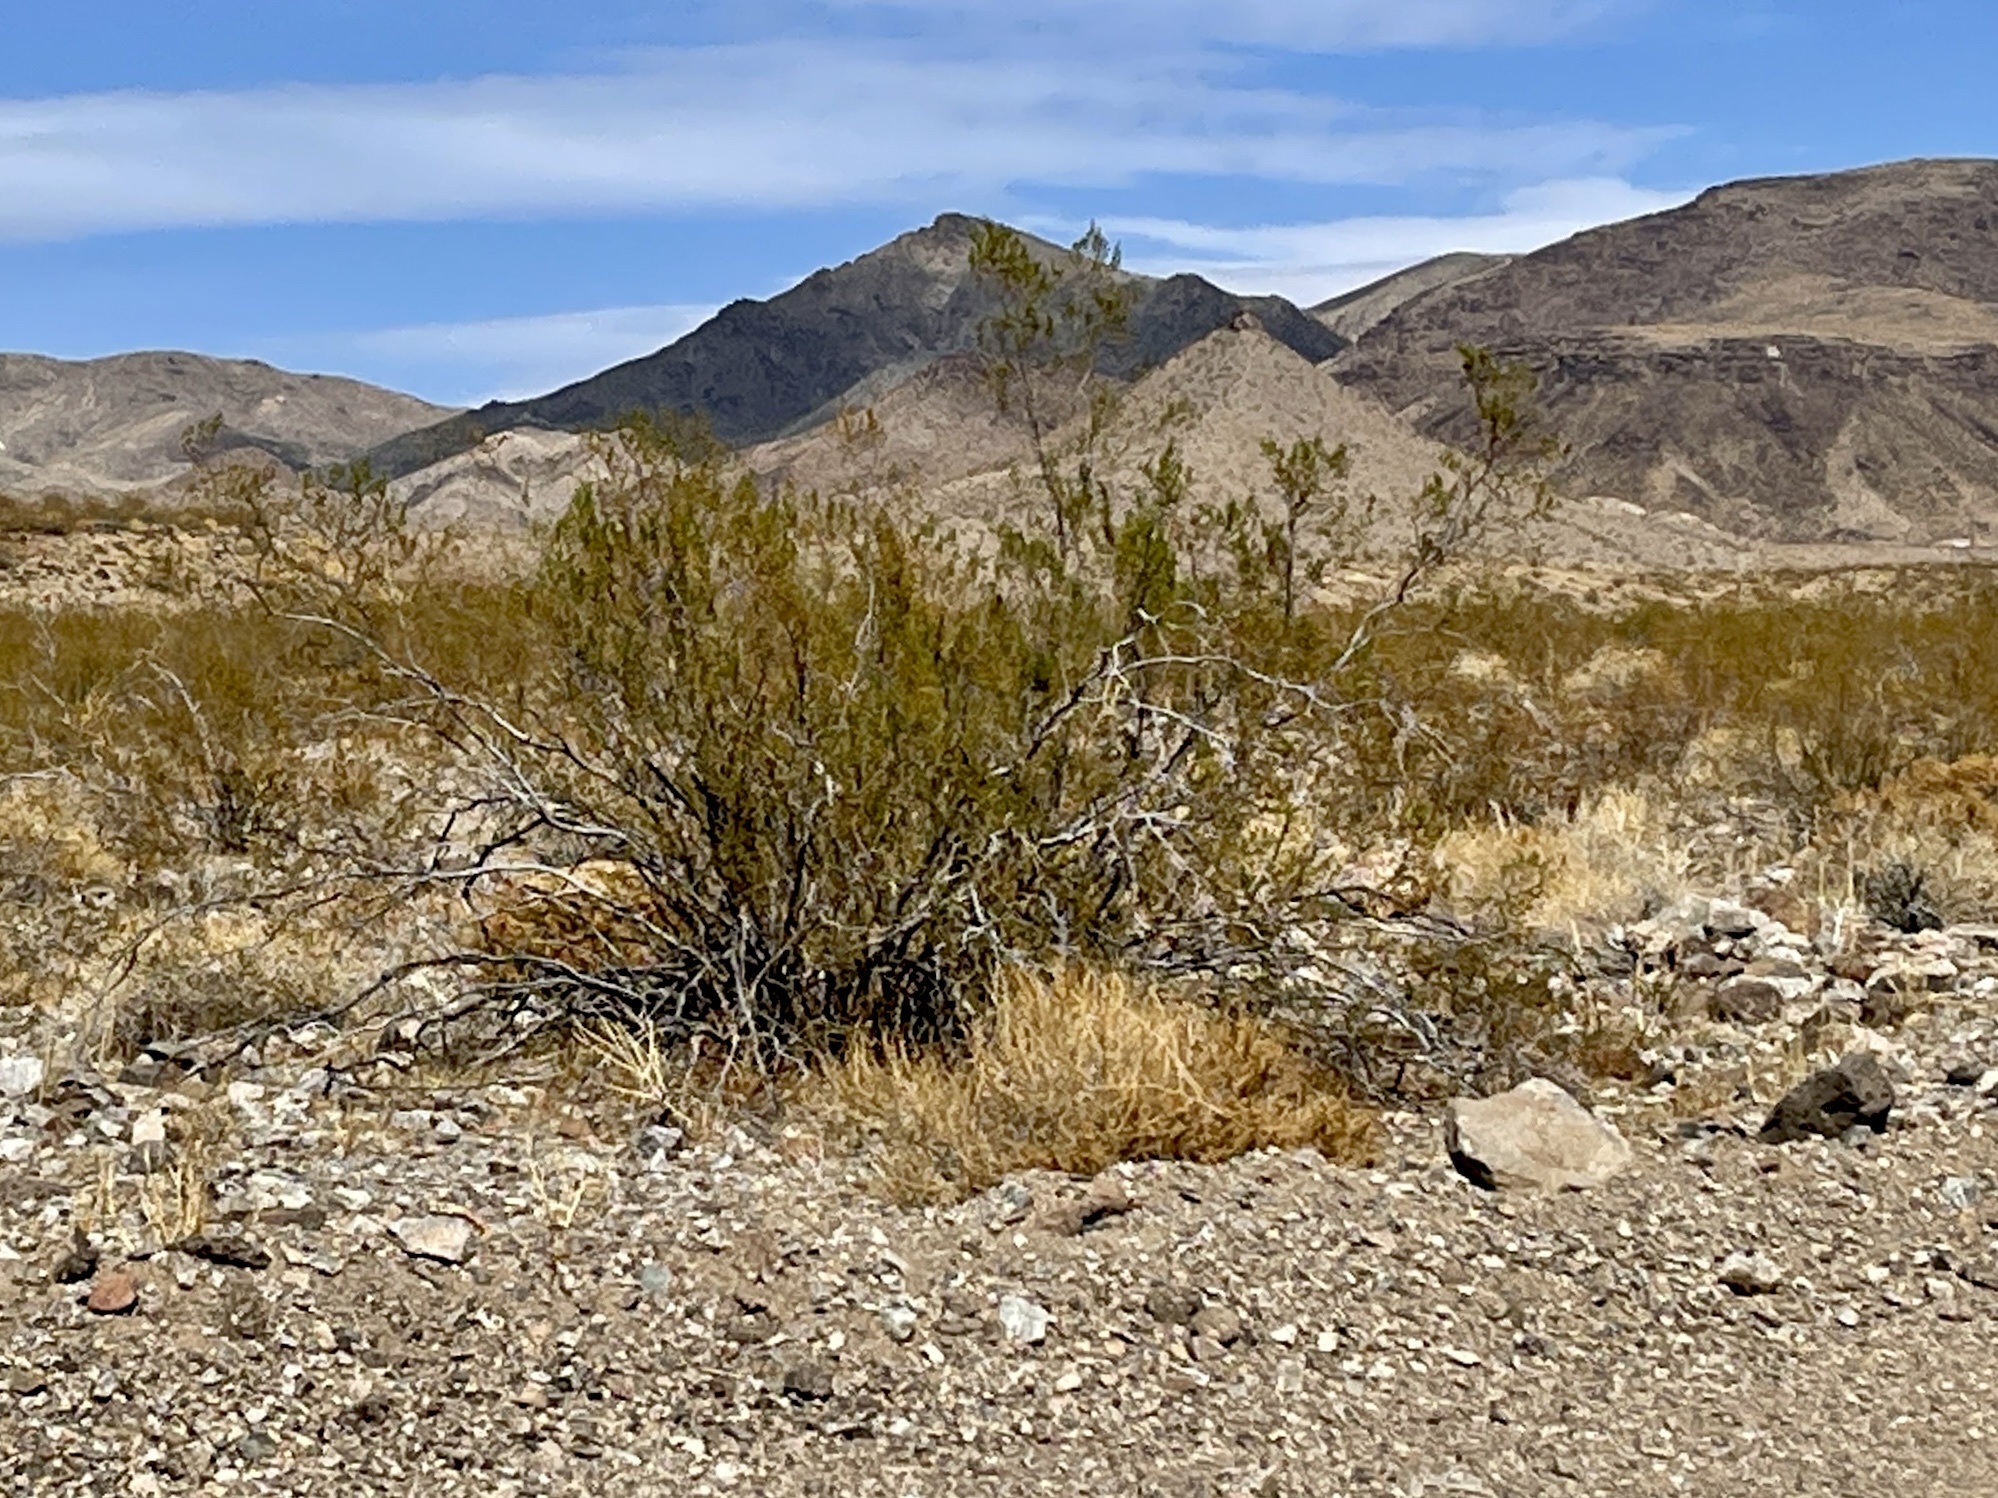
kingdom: Plantae
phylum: Tracheophyta
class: Magnoliopsida
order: Zygophyllales
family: Zygophyllaceae
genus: Larrea
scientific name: Larrea tridentata
